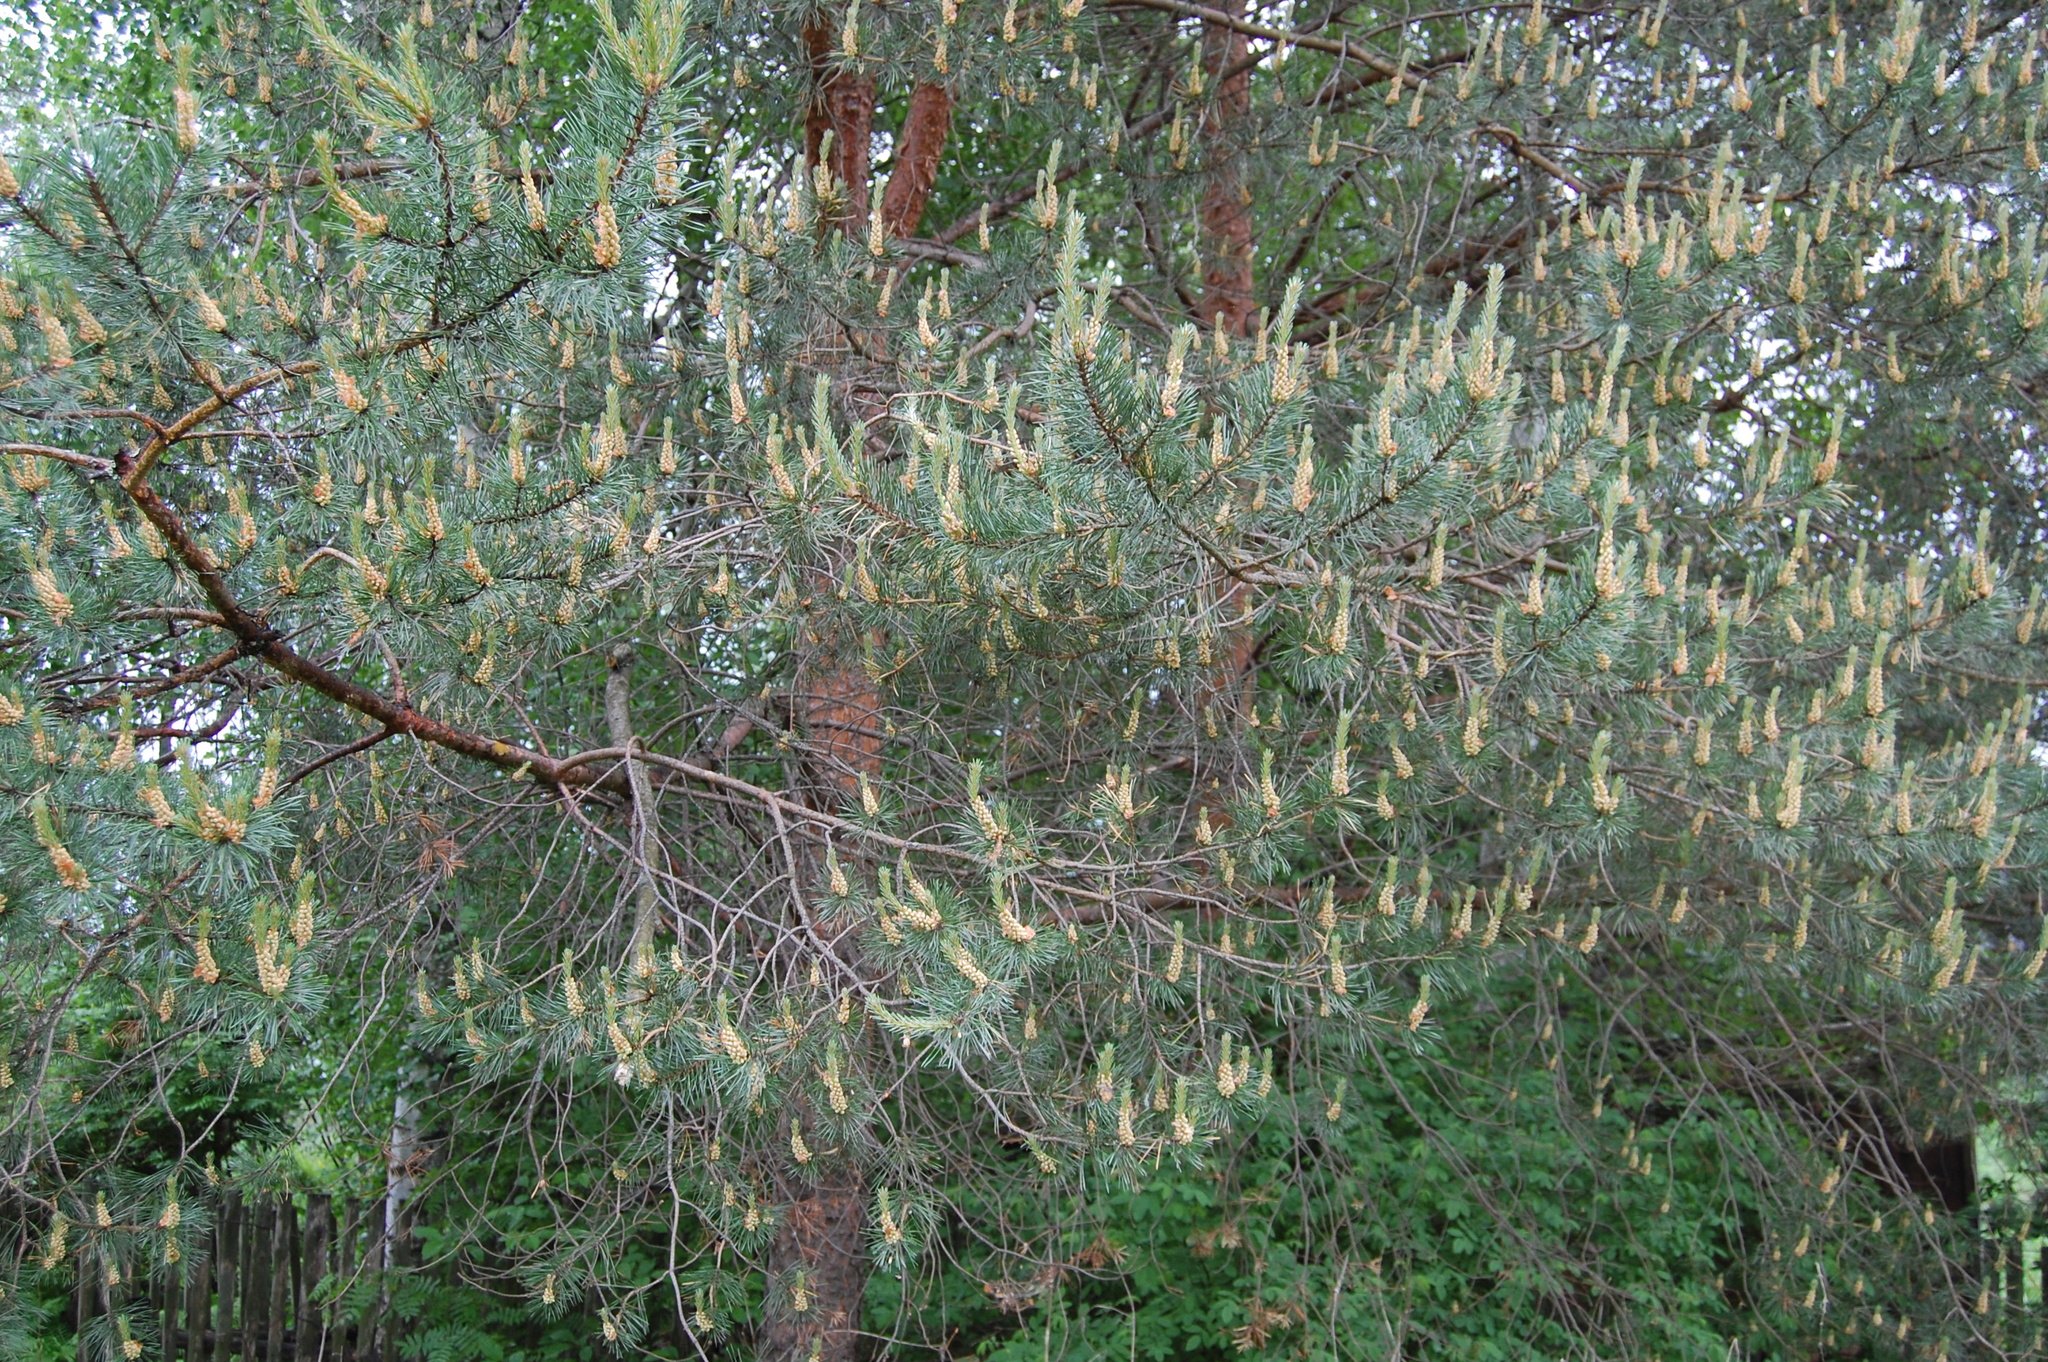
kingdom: Plantae
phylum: Tracheophyta
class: Pinopsida
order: Pinales
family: Pinaceae
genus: Pinus
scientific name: Pinus sylvestris
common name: Scots pine
